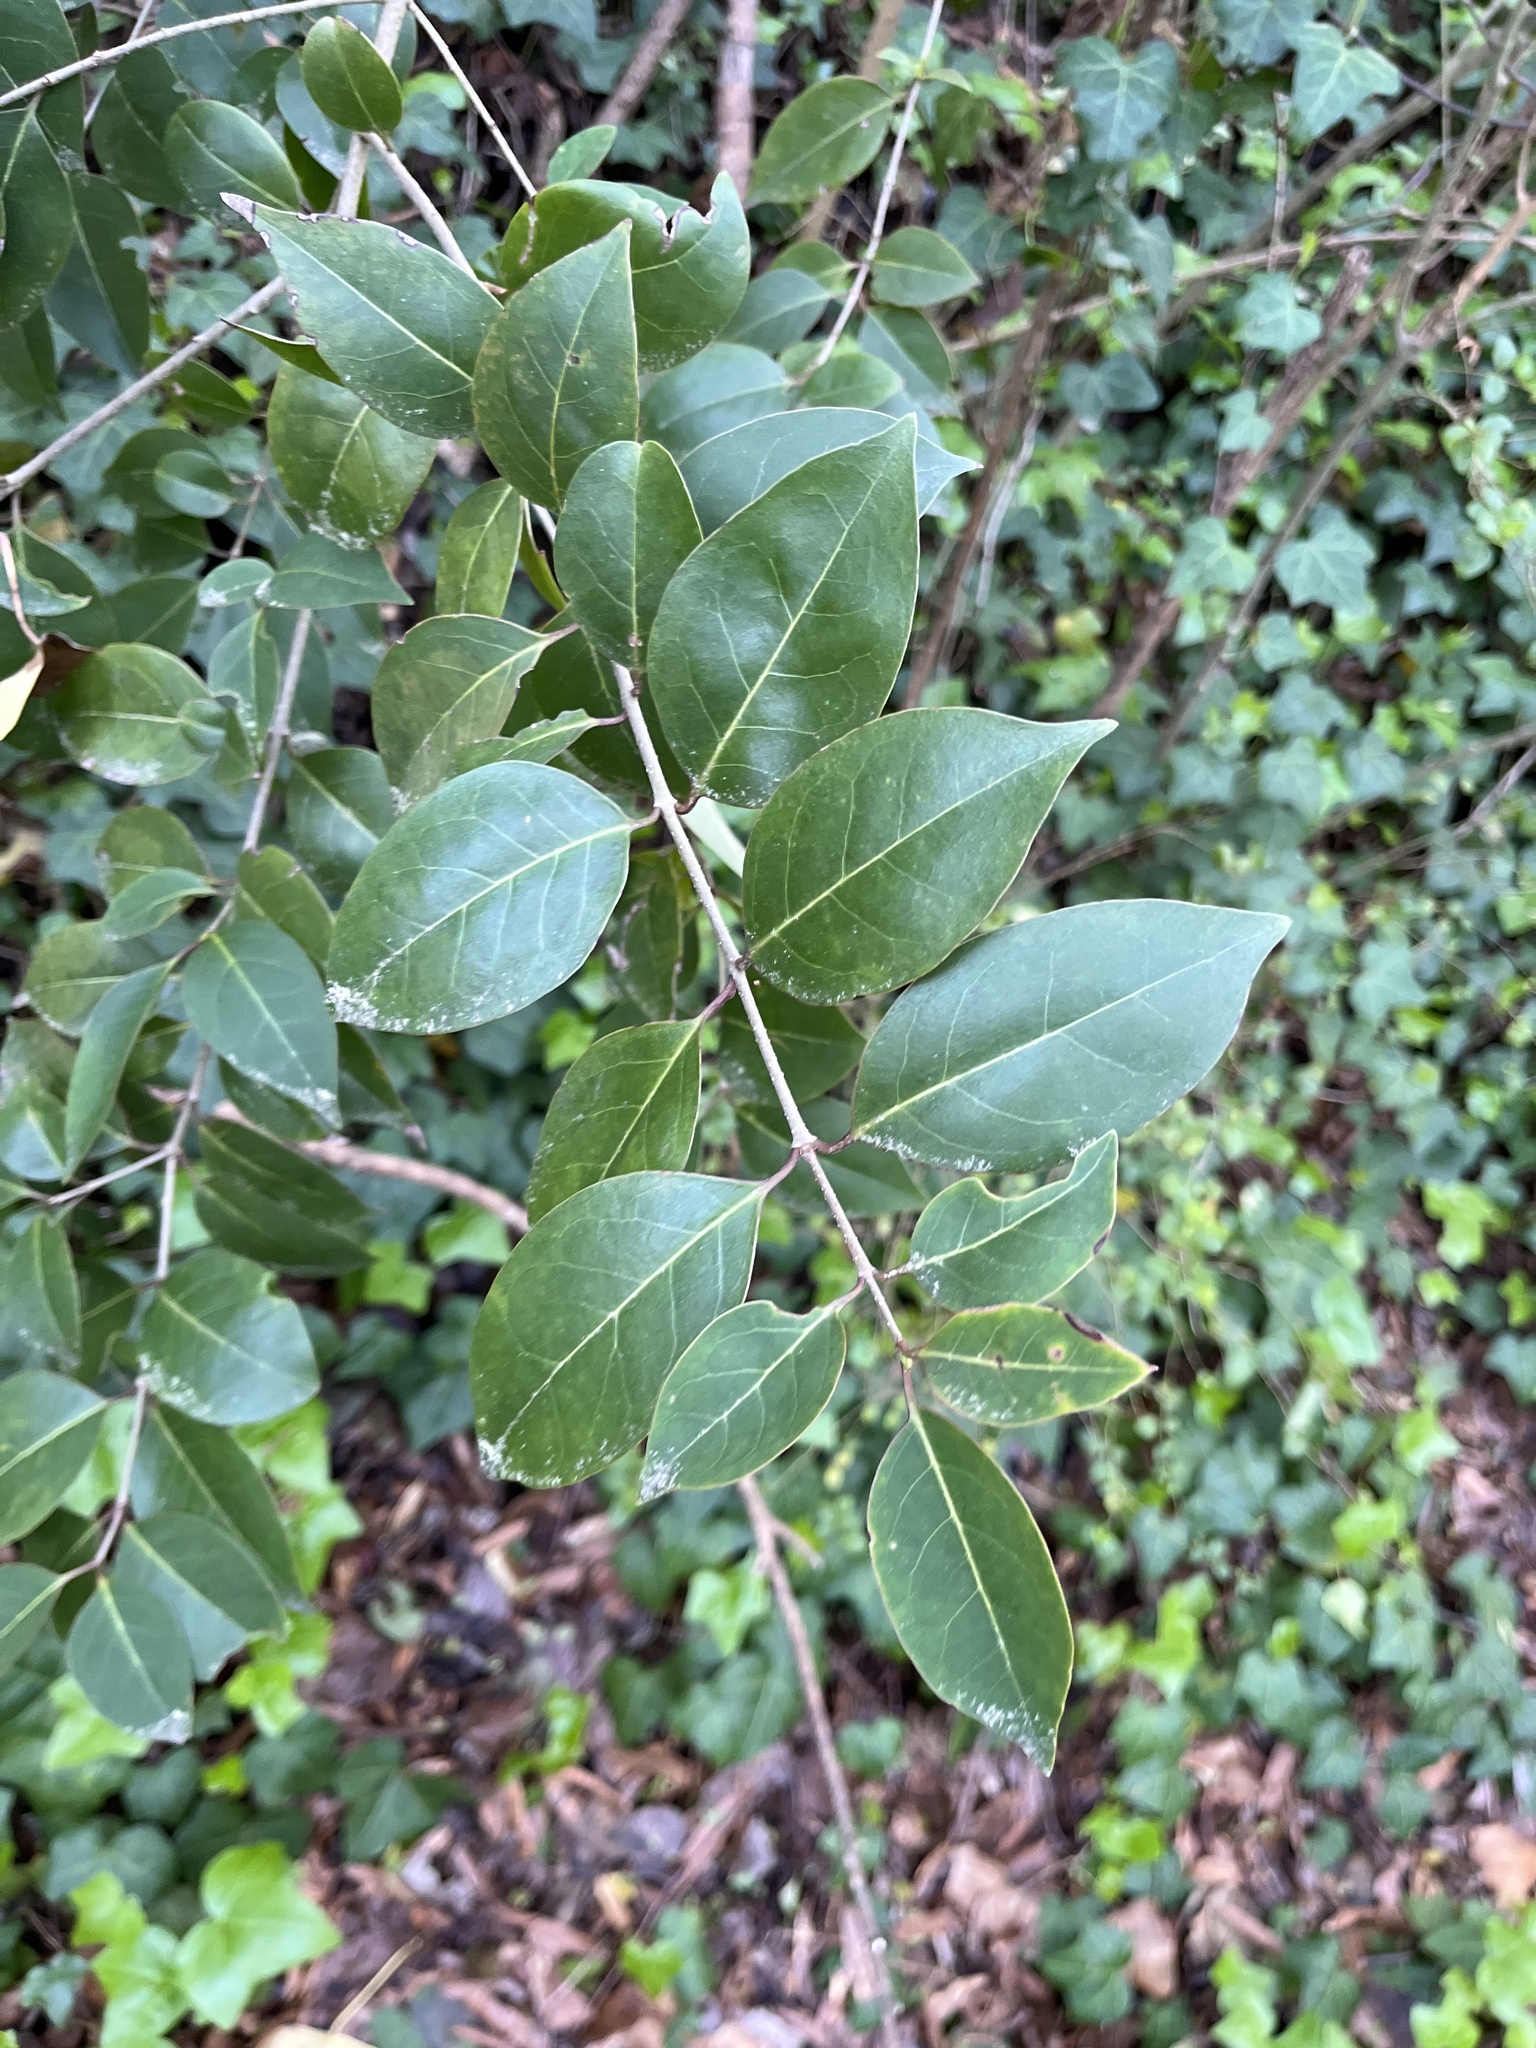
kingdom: Plantae
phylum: Tracheophyta
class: Magnoliopsida
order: Lamiales
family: Oleaceae
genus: Ligustrum
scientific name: Ligustrum lucidum
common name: Glossy privet
